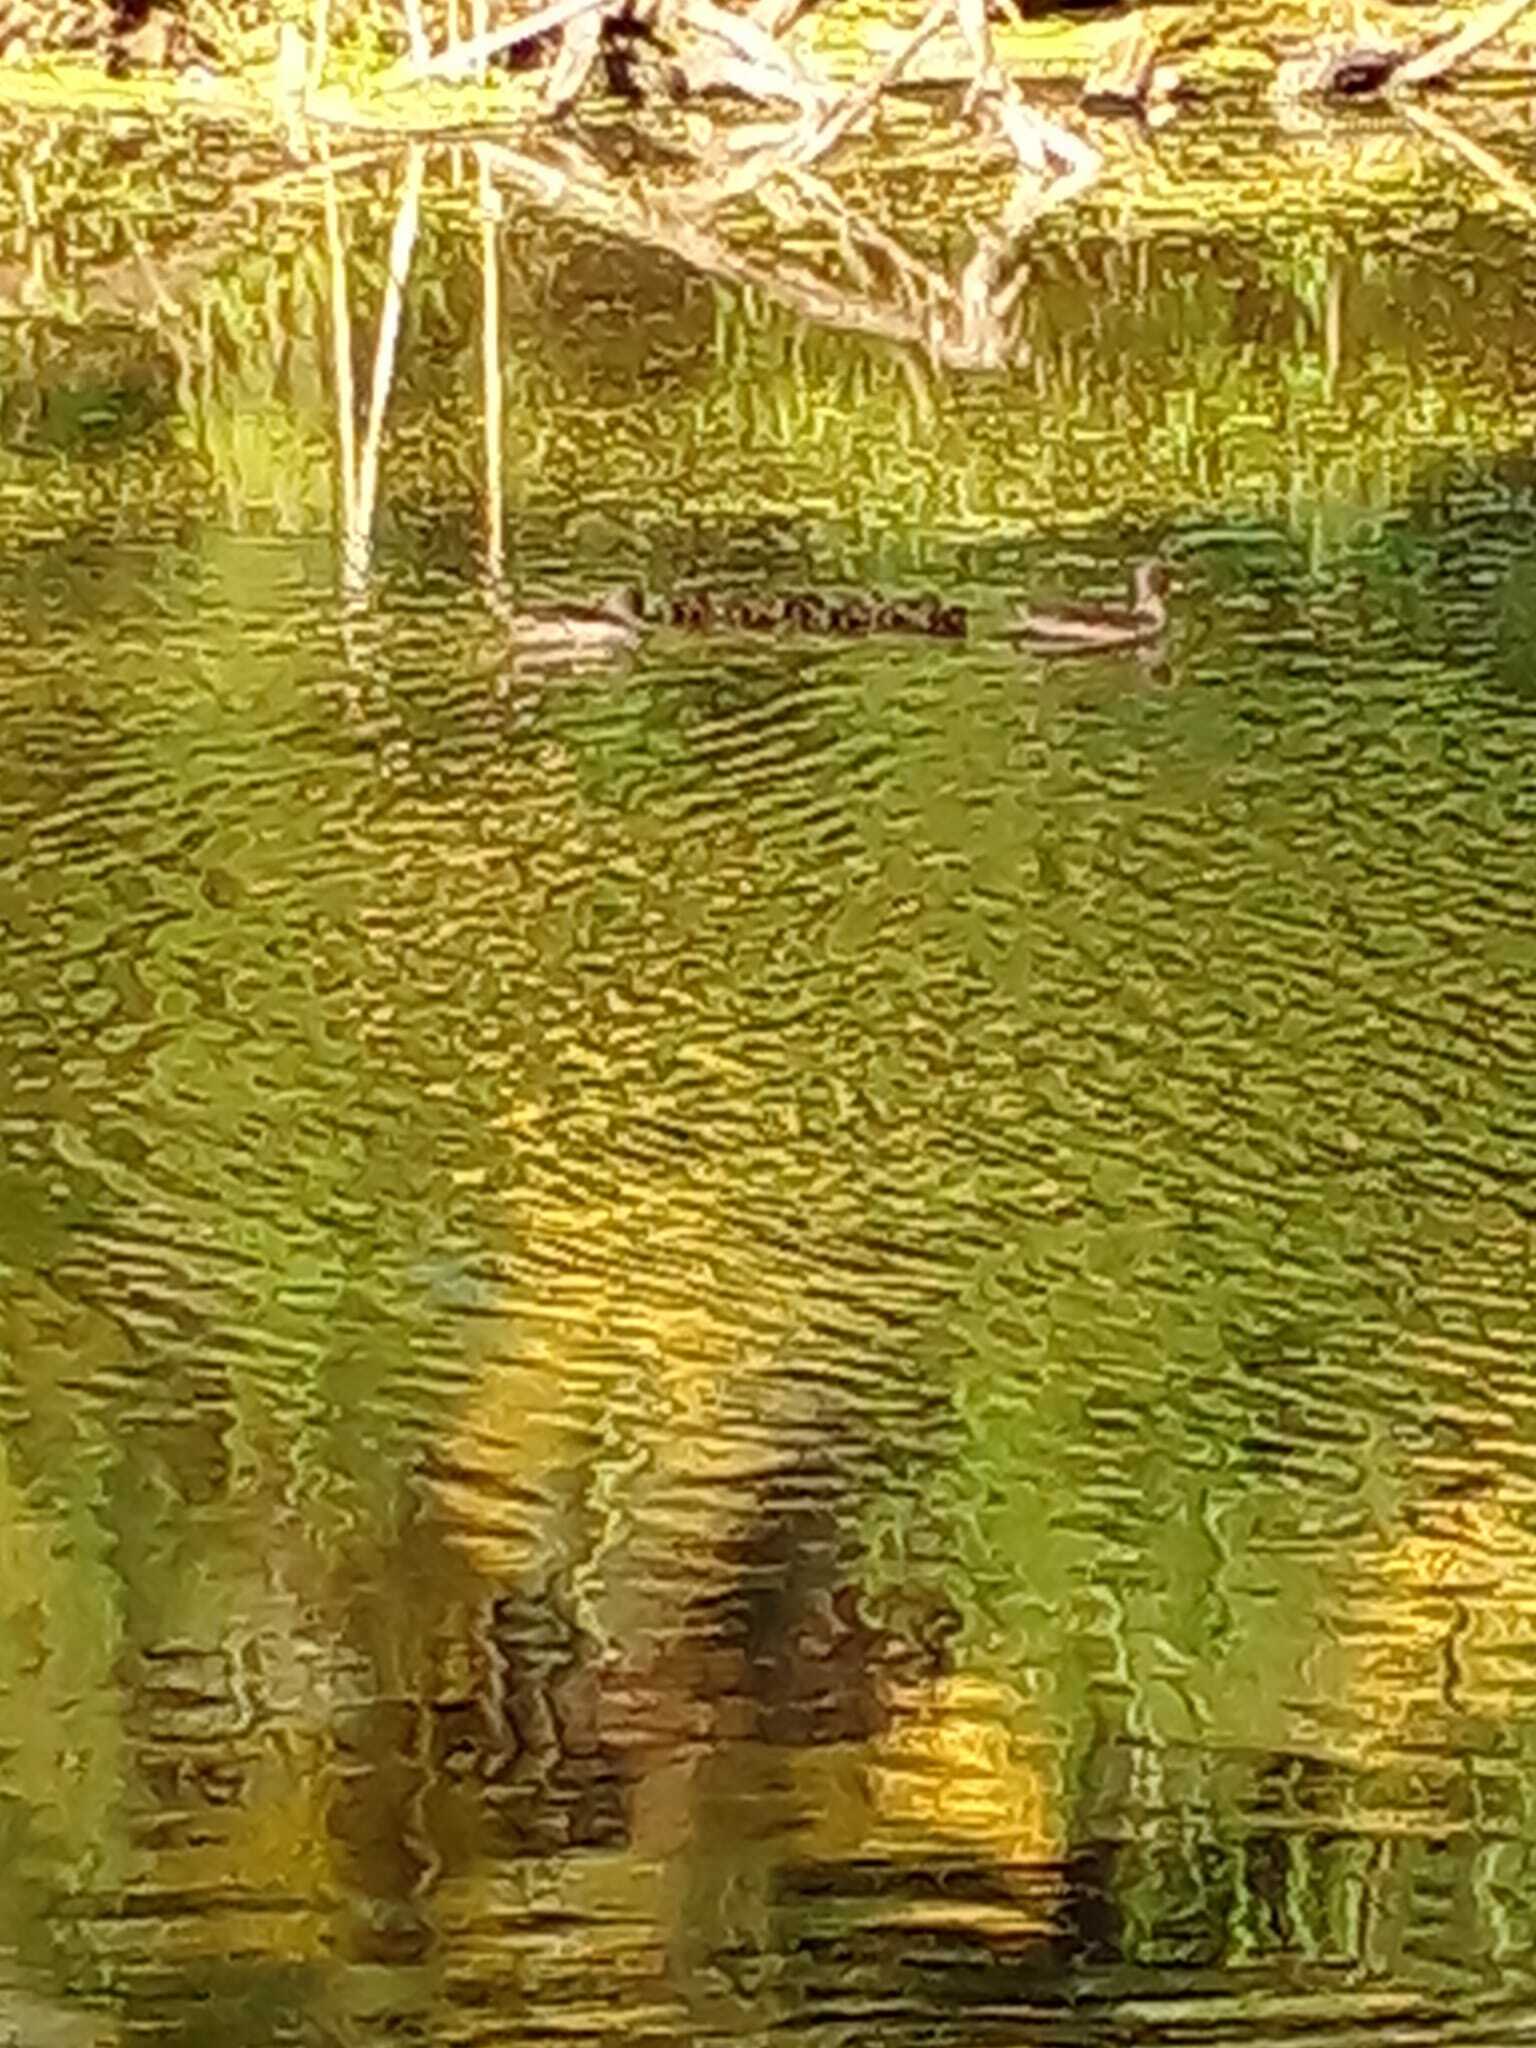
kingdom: Animalia
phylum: Chordata
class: Aves
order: Anseriformes
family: Anatidae
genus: Anas
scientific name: Anas flavirostris
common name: Yellow-billed teal
